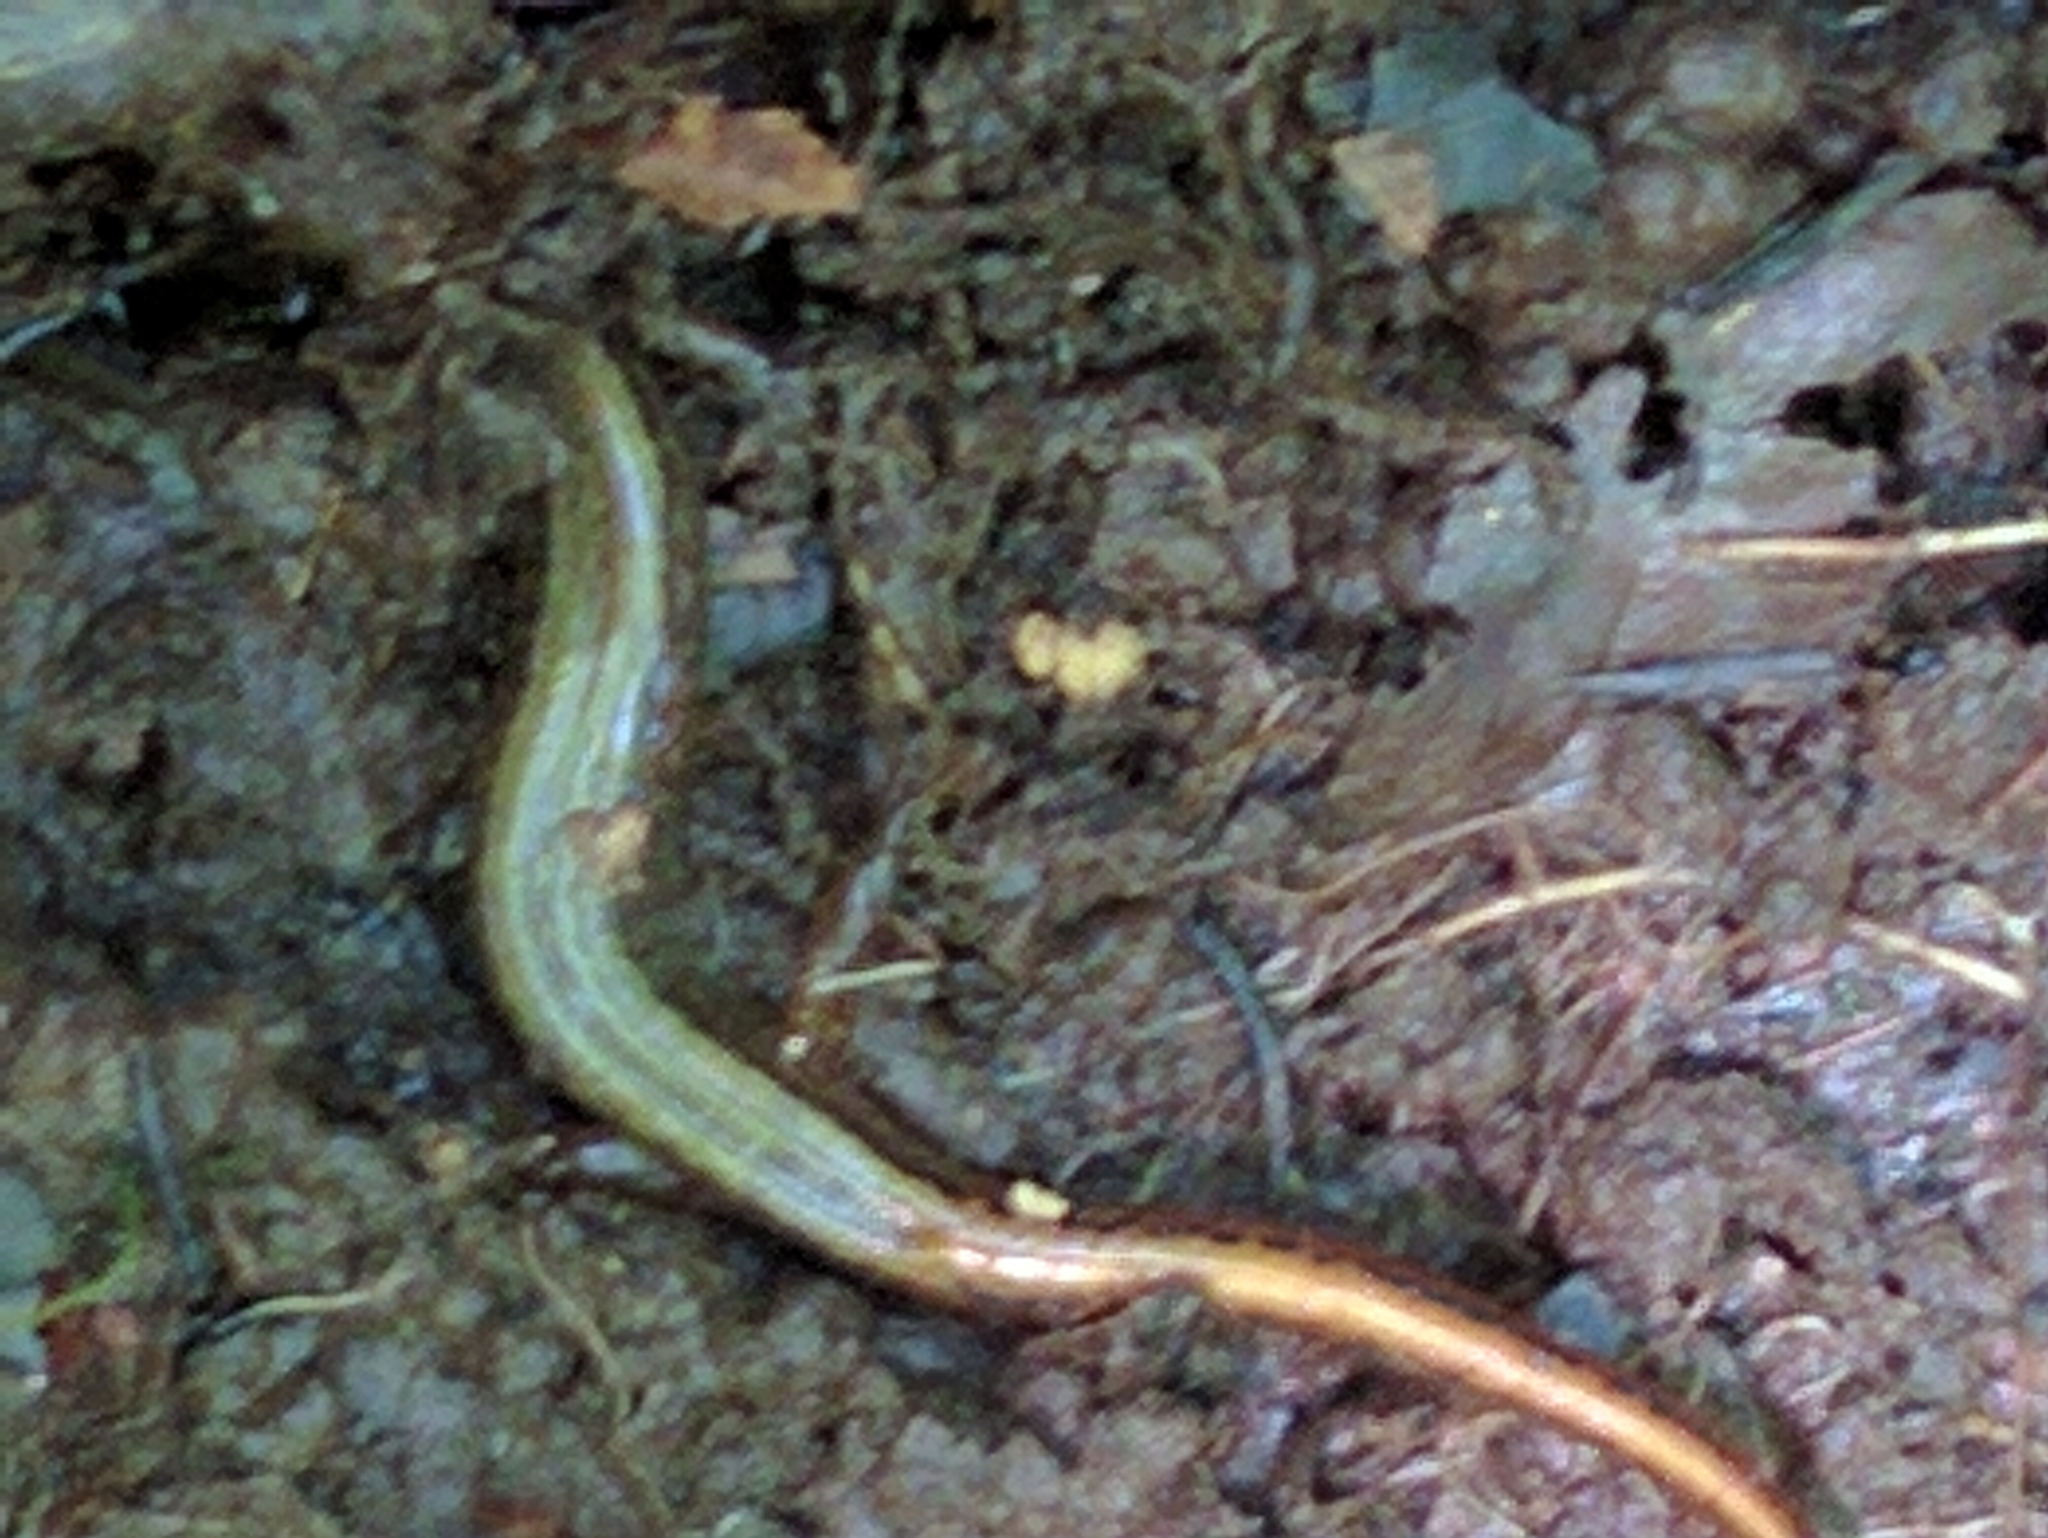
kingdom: Animalia
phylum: Chordata
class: Amphibia
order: Caudata
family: Plethodontidae
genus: Eurycea
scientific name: Eurycea bislineata
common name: Northern two-lined salamander
